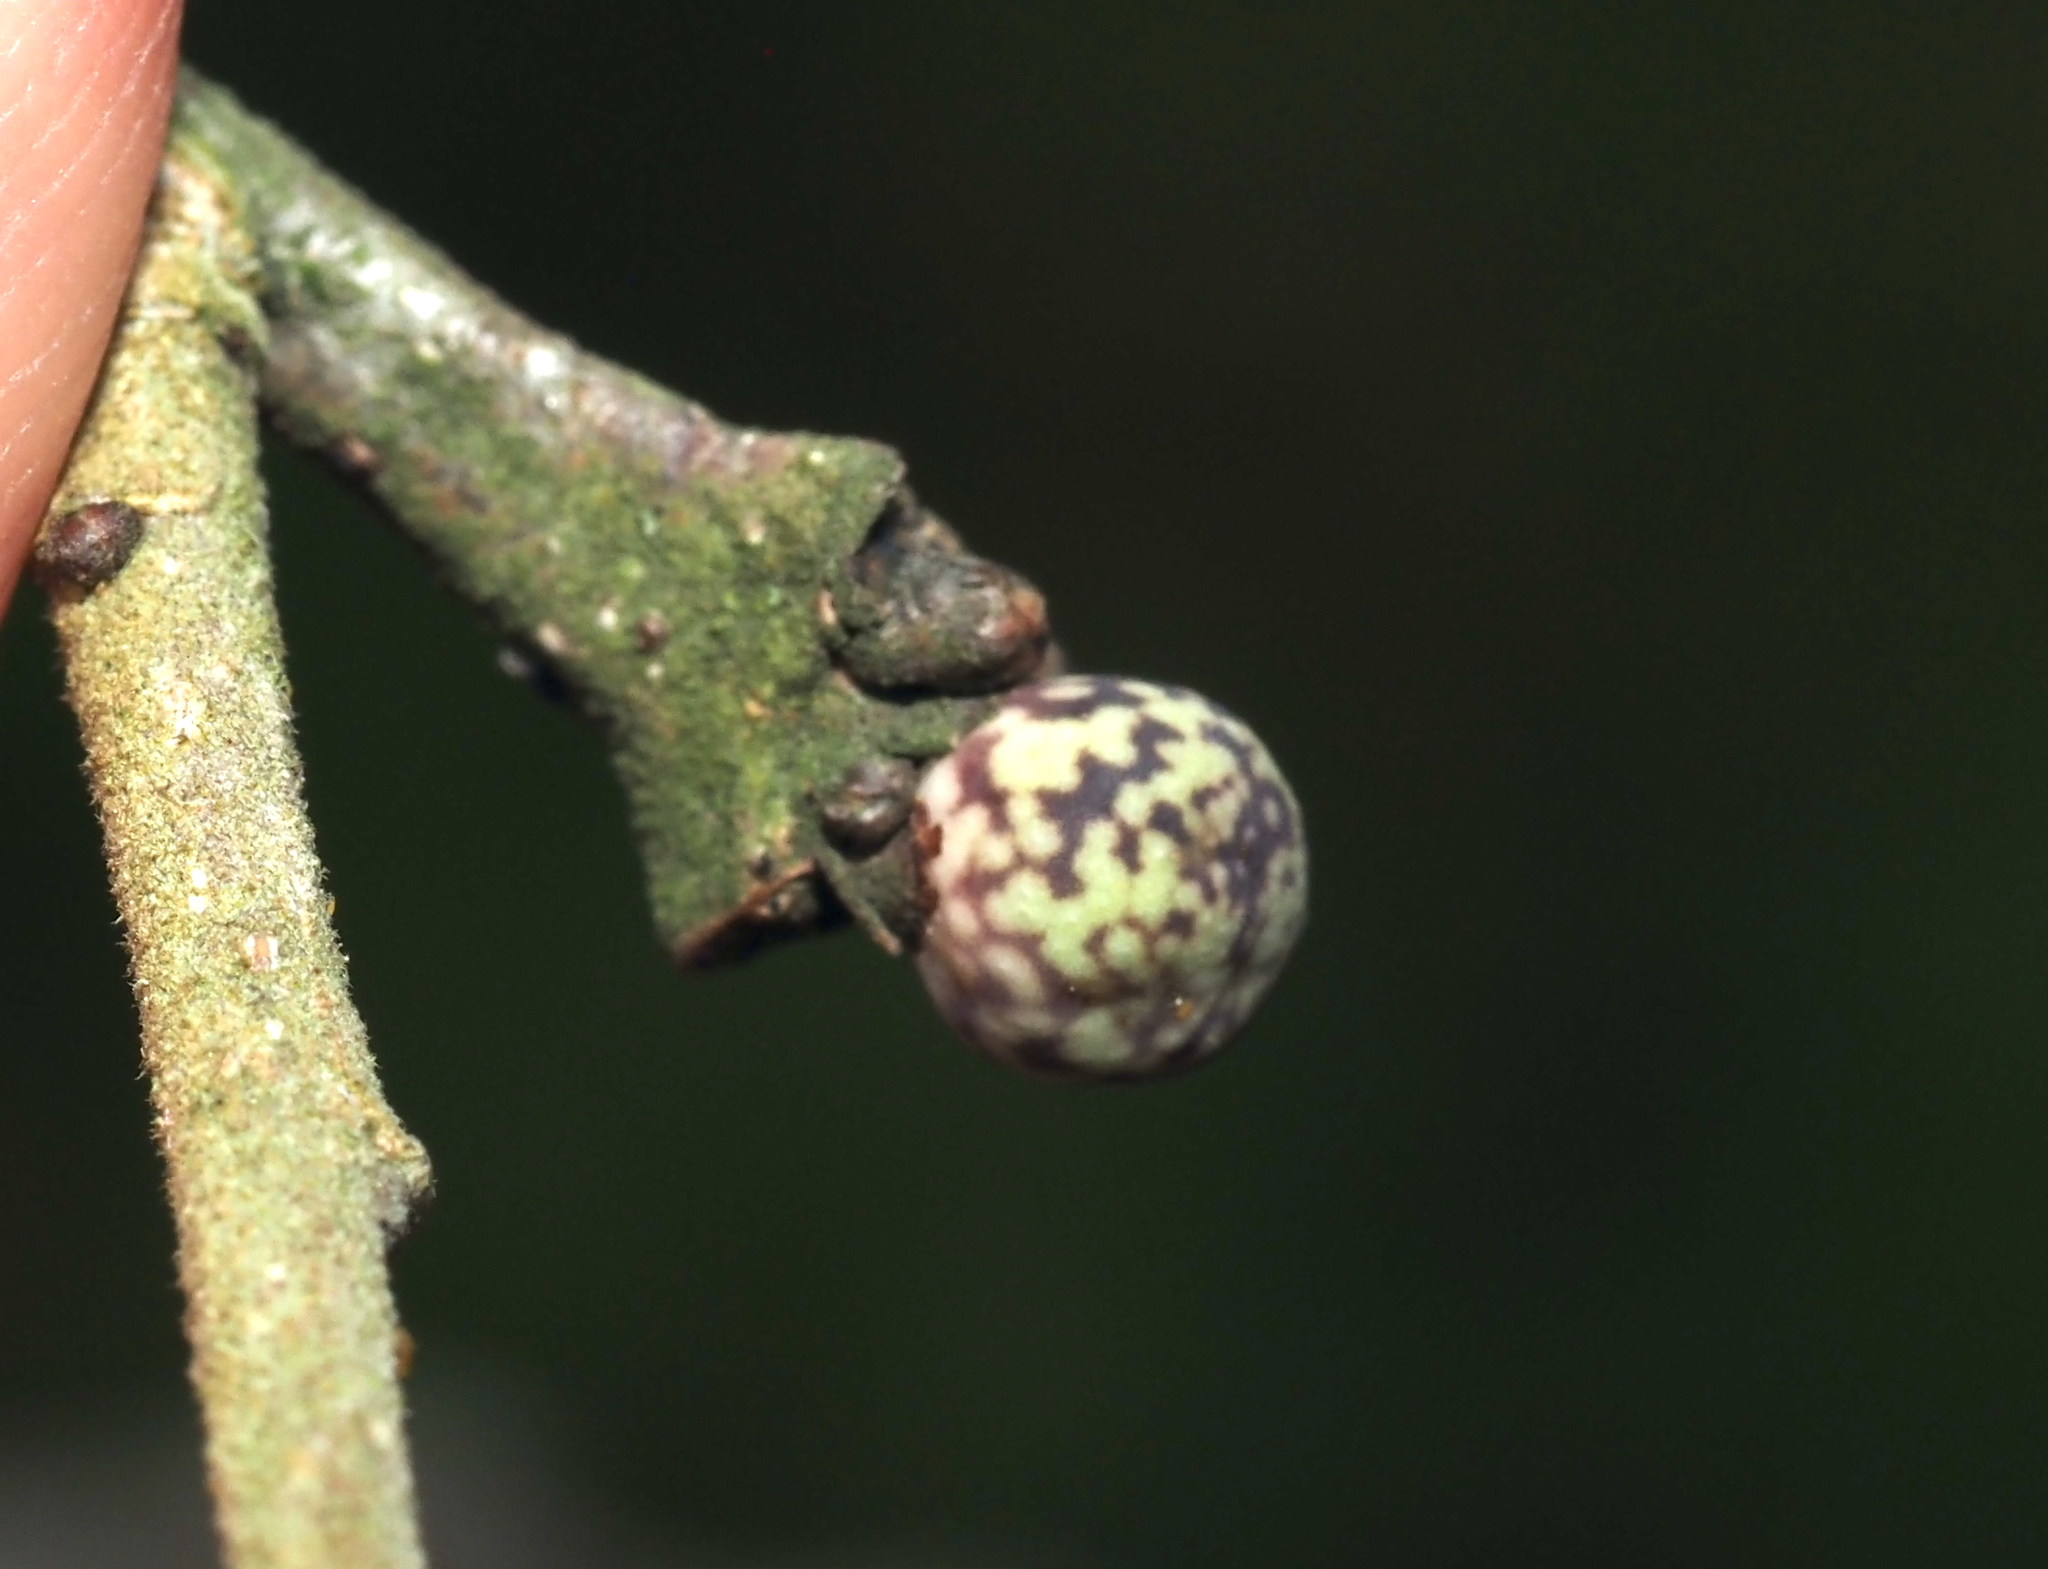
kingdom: Animalia
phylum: Arthropoda
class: Insecta
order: Hymenoptera
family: Cynipidae
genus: Andricus
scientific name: Andricus
